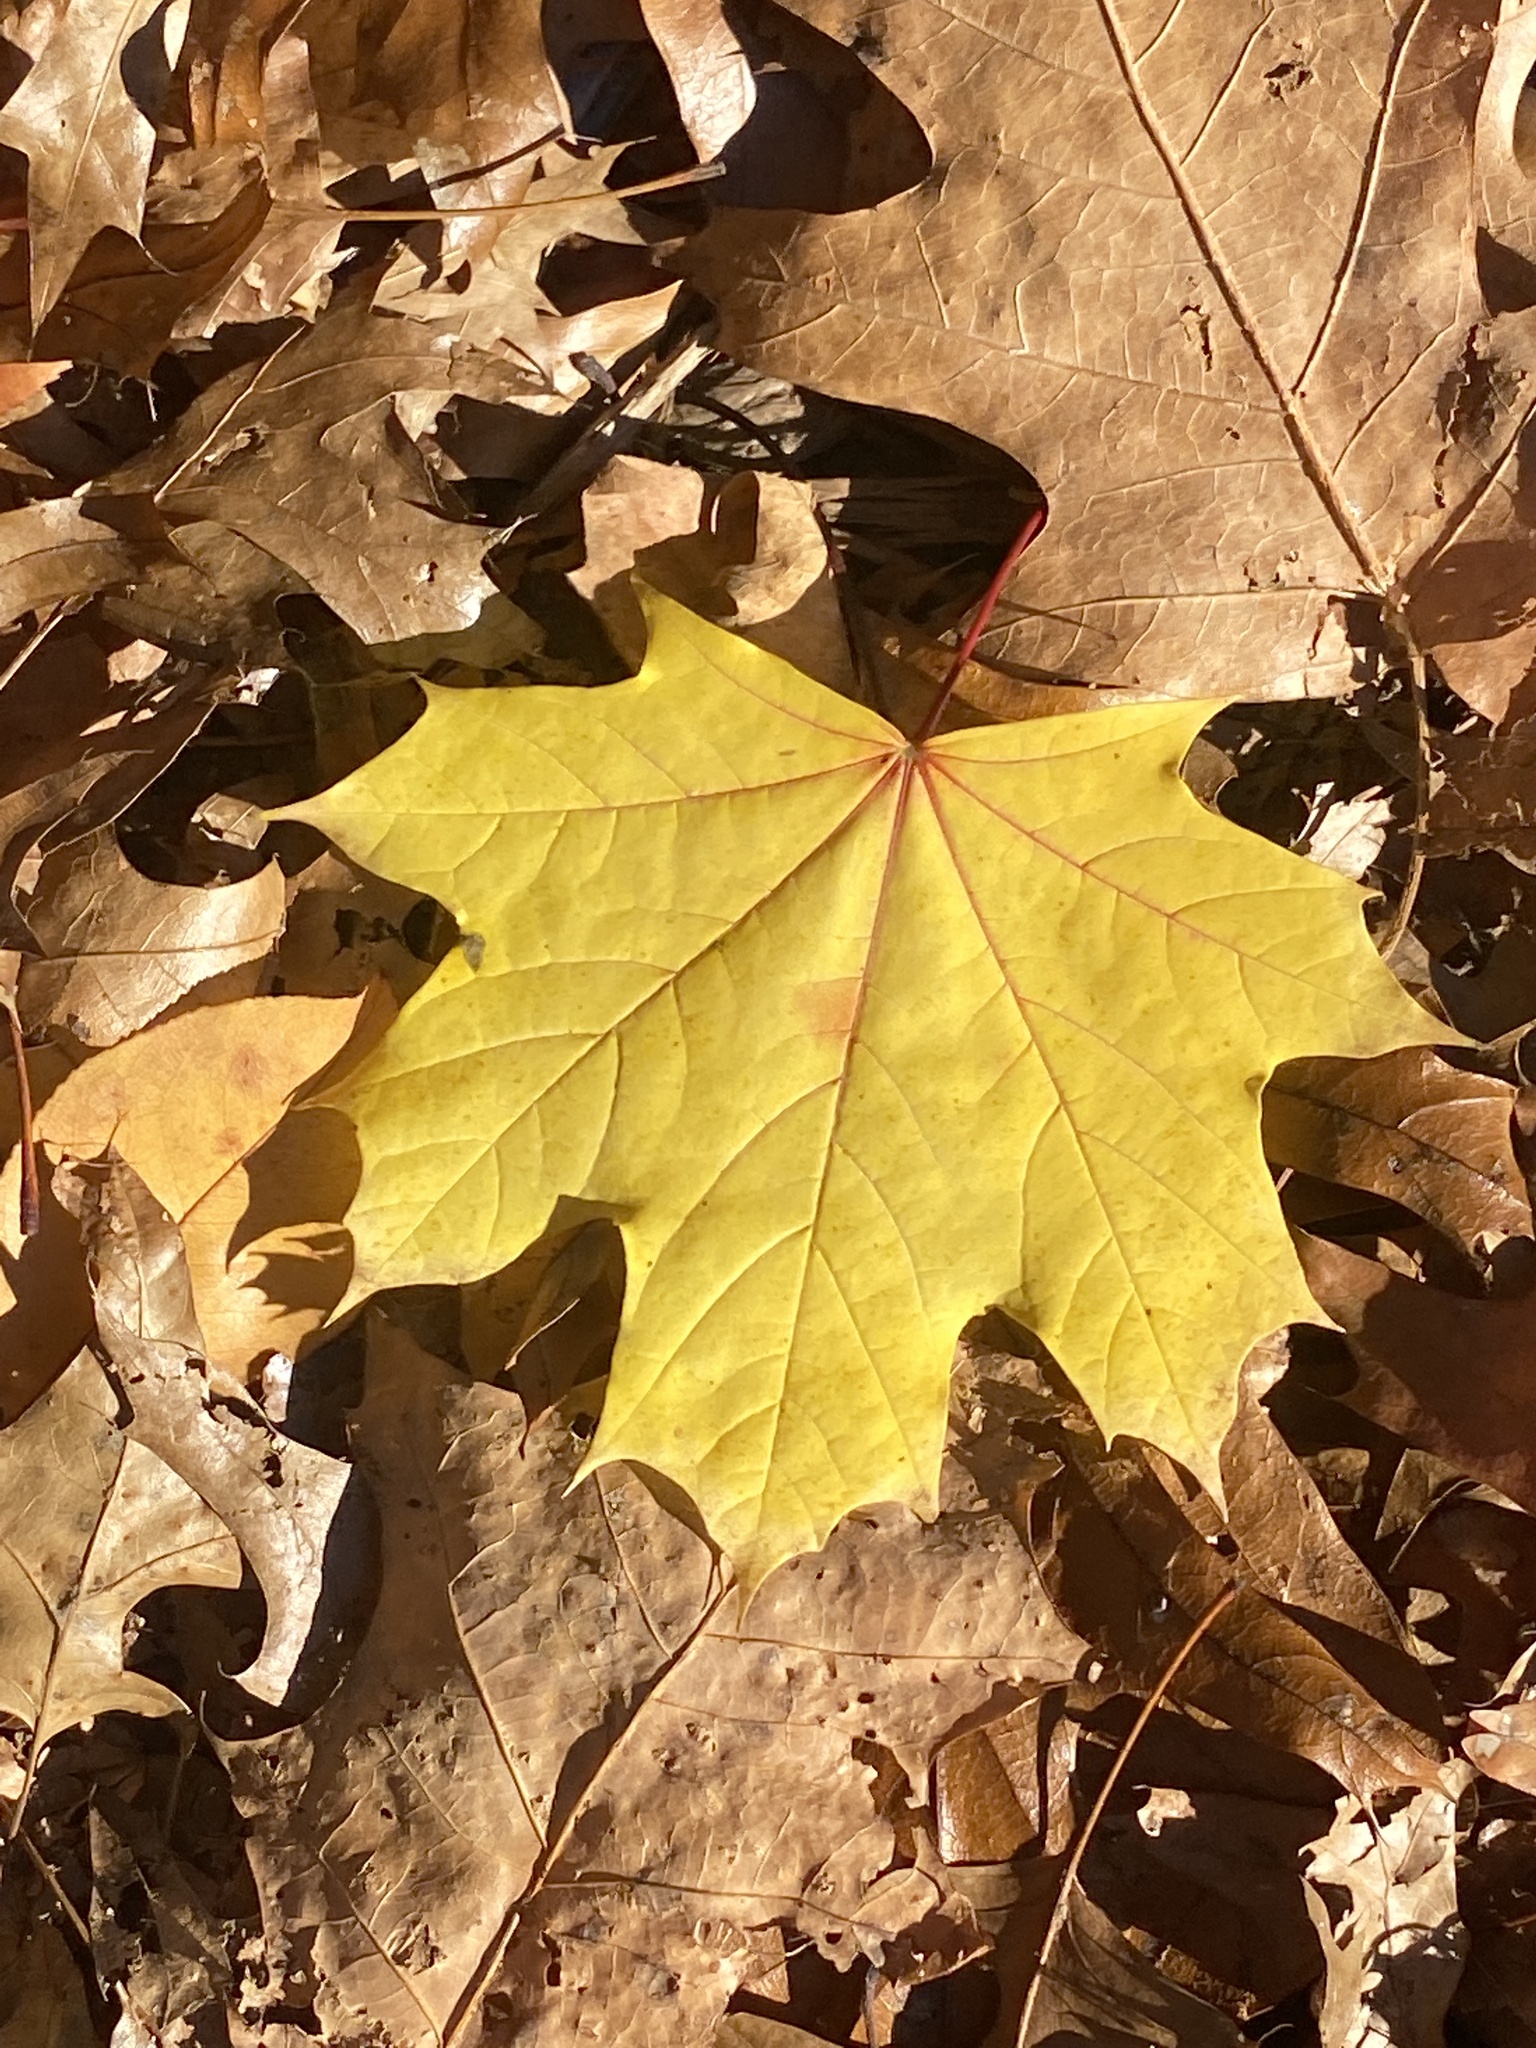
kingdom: Plantae
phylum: Tracheophyta
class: Magnoliopsida
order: Sapindales
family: Sapindaceae
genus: Acer
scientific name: Acer platanoides
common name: Norway maple
